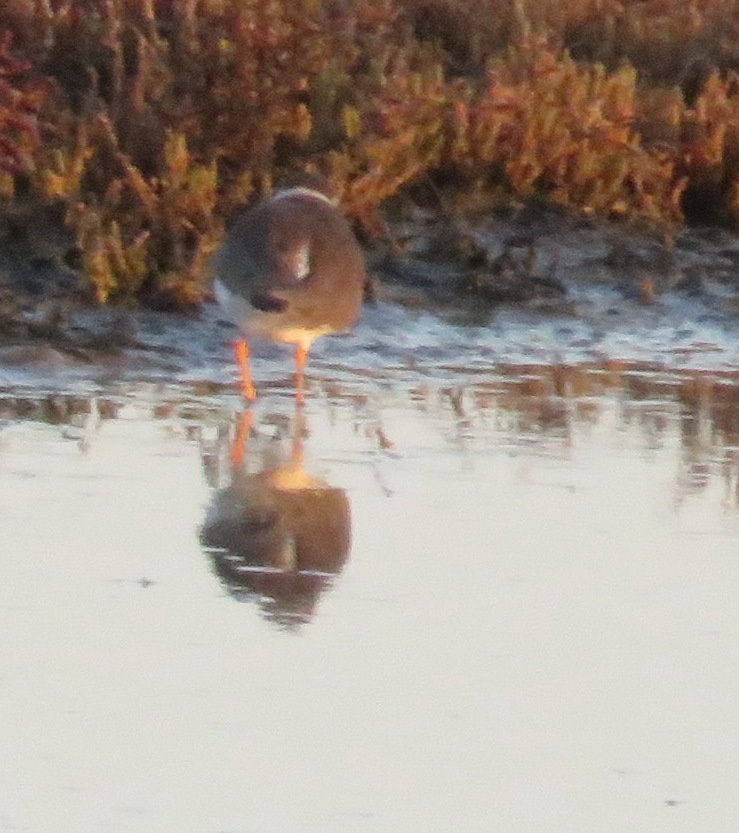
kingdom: Animalia
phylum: Chordata
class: Aves
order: Charadriiformes
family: Charadriidae
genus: Charadrius
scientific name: Charadrius hiaticula
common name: Common ringed plover
